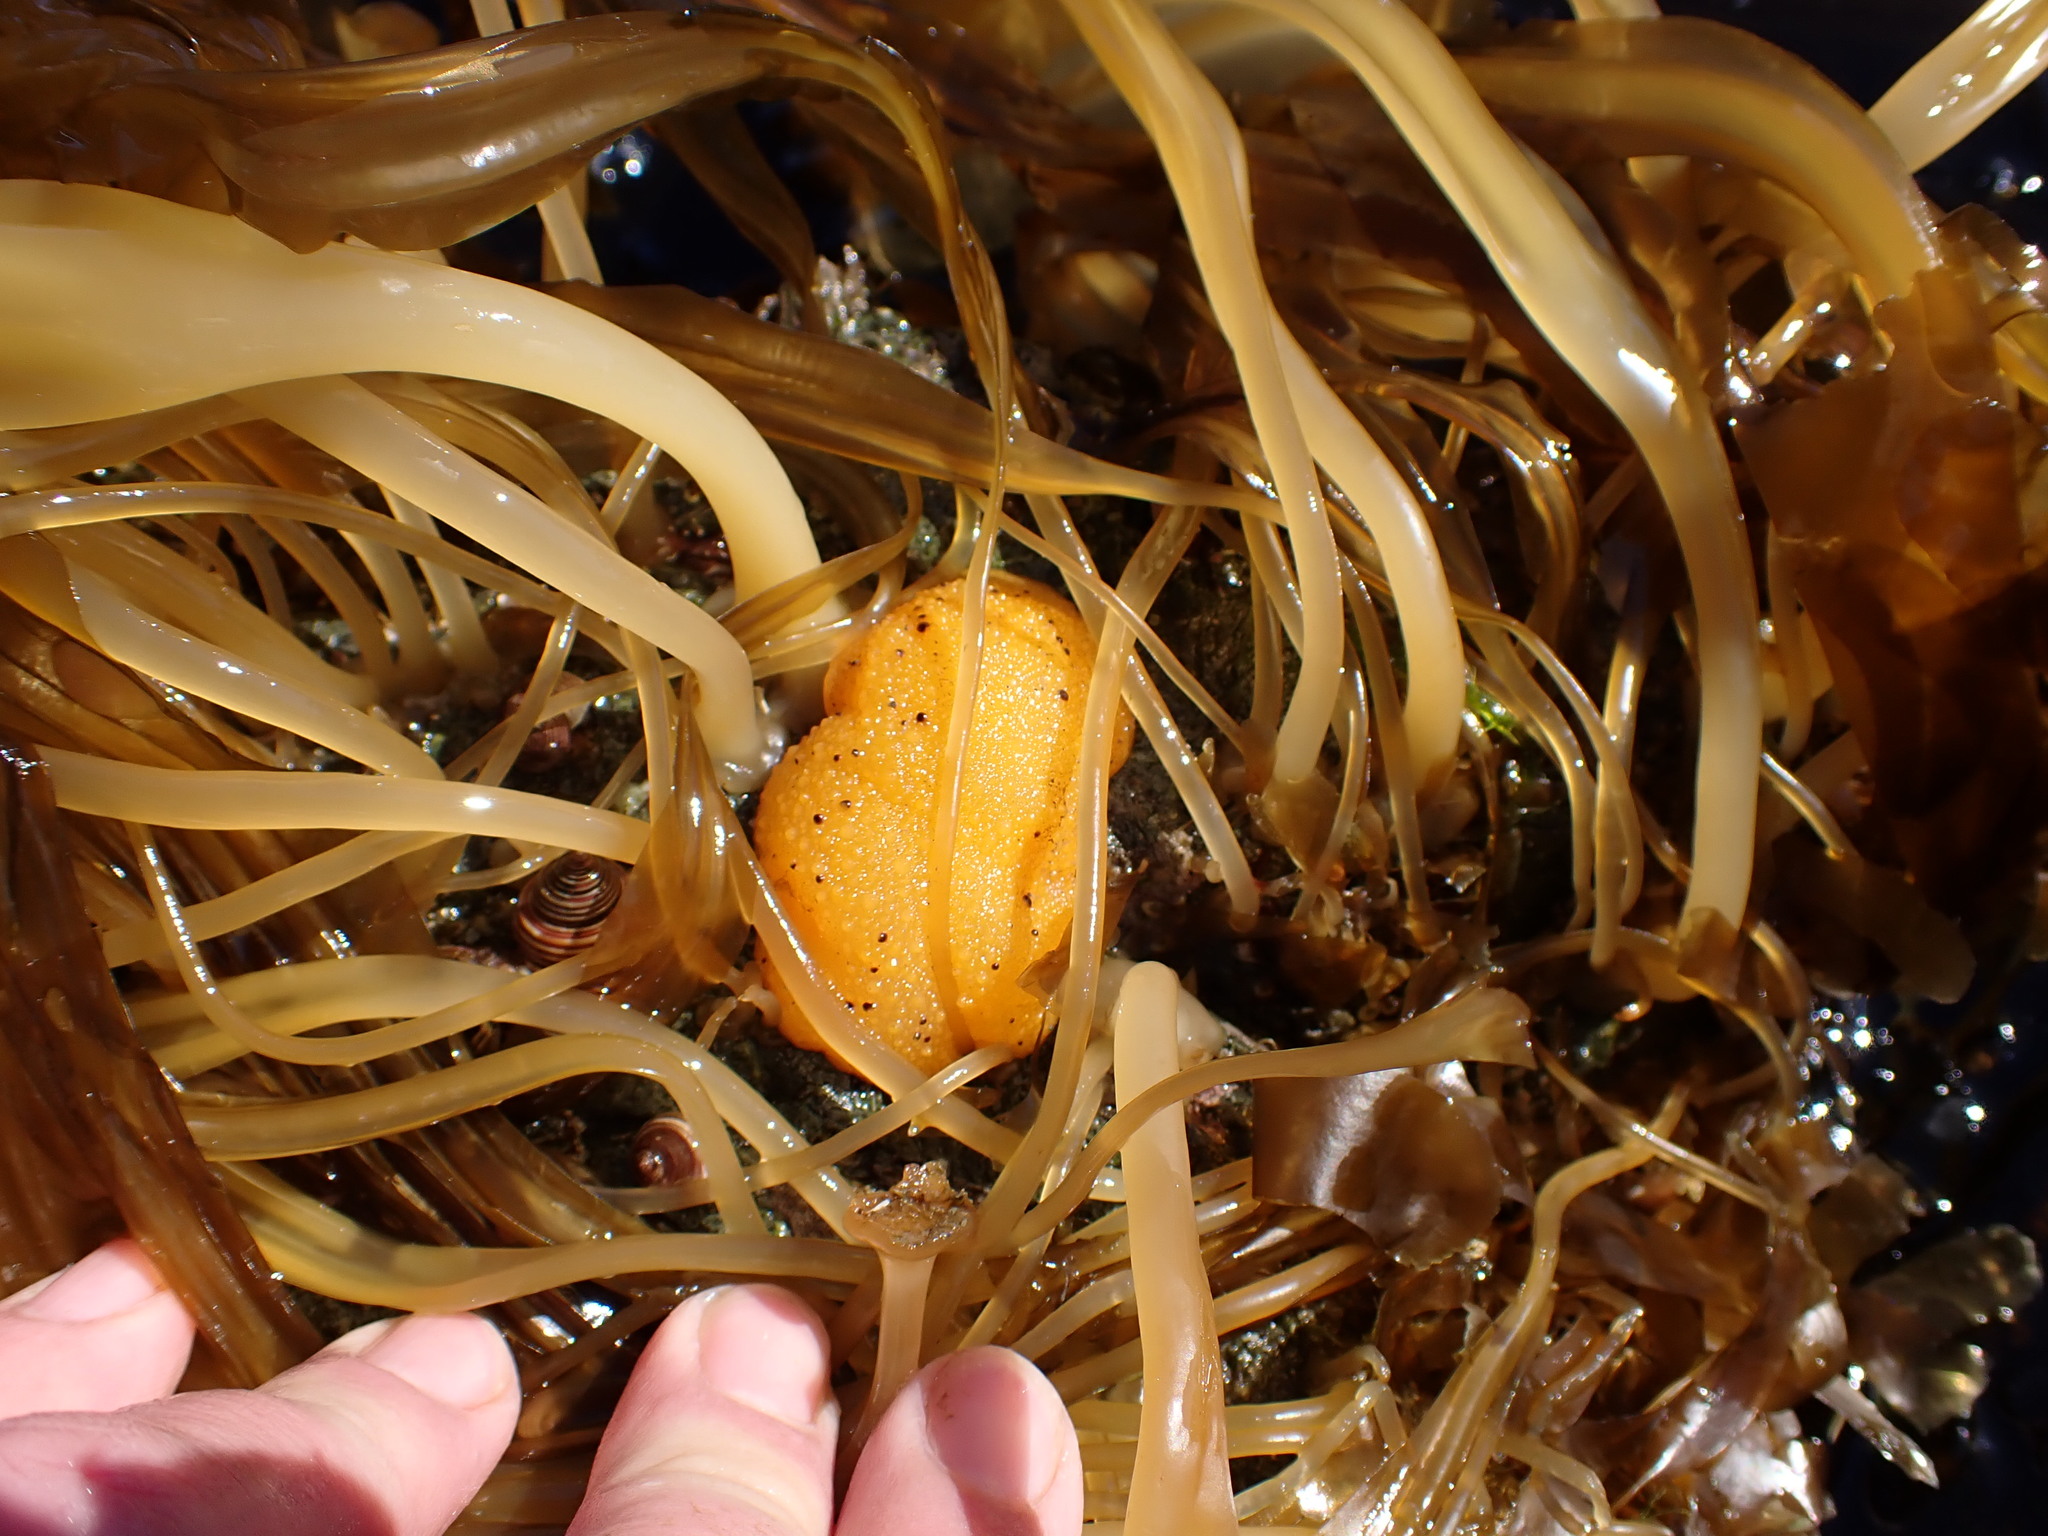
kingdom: Animalia
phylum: Mollusca
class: Gastropoda
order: Nudibranchia
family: Dorididae
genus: Doris
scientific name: Doris montereyensis
